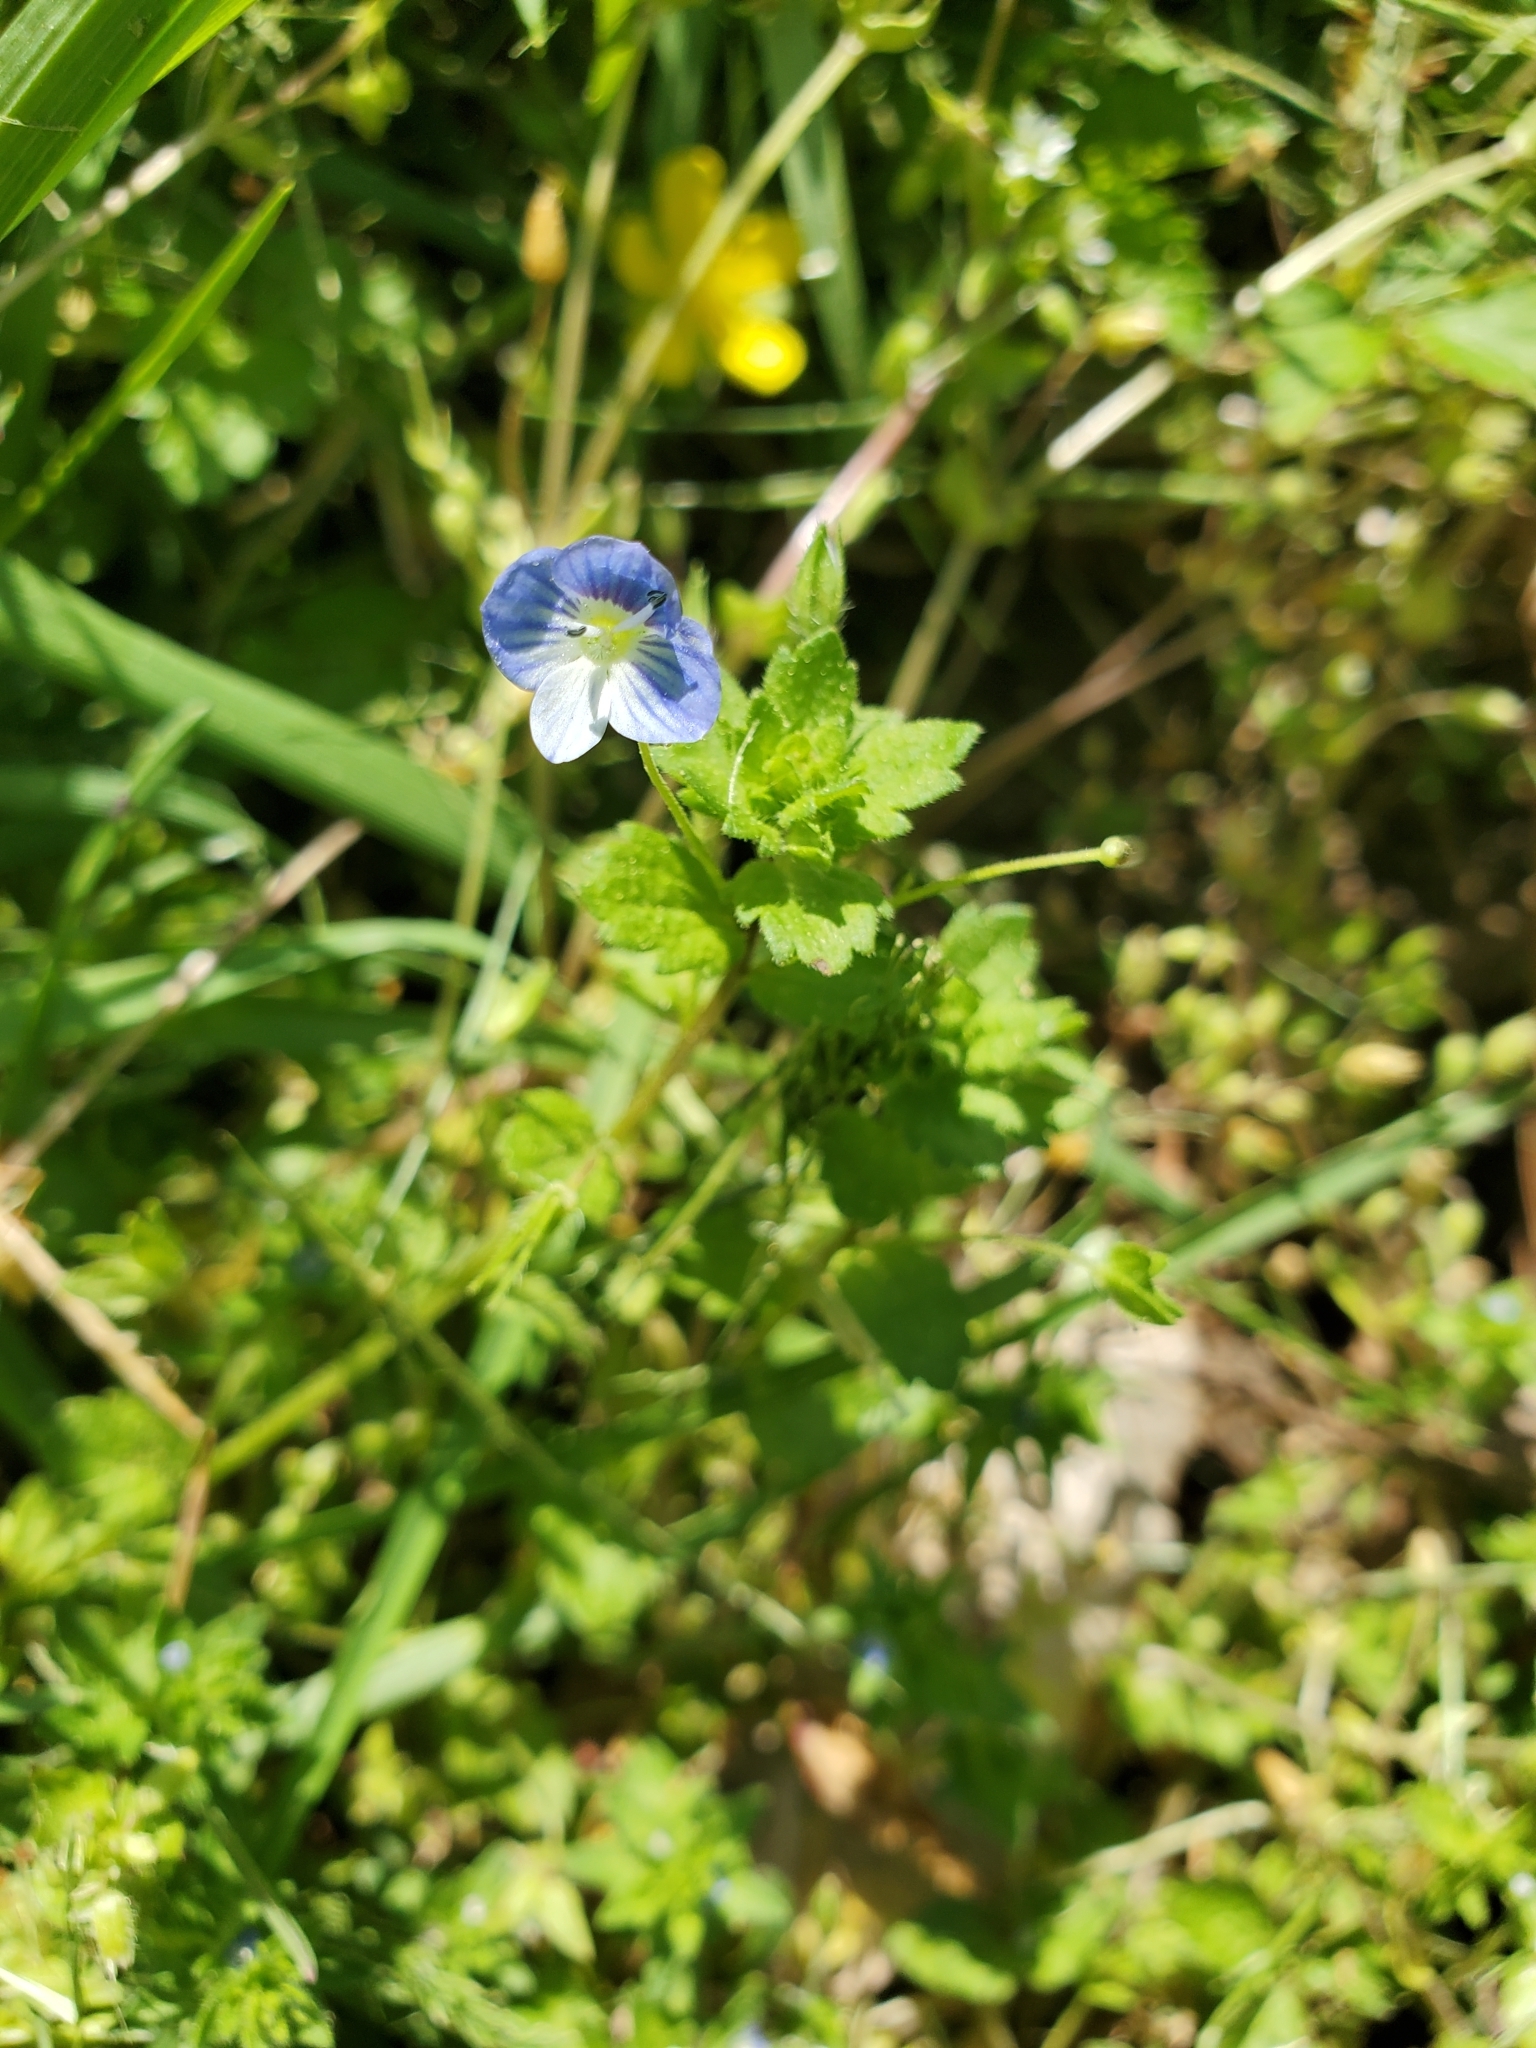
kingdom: Plantae
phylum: Tracheophyta
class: Magnoliopsida
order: Lamiales
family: Plantaginaceae
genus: Veronica
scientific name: Veronica persica
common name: Common field-speedwell
